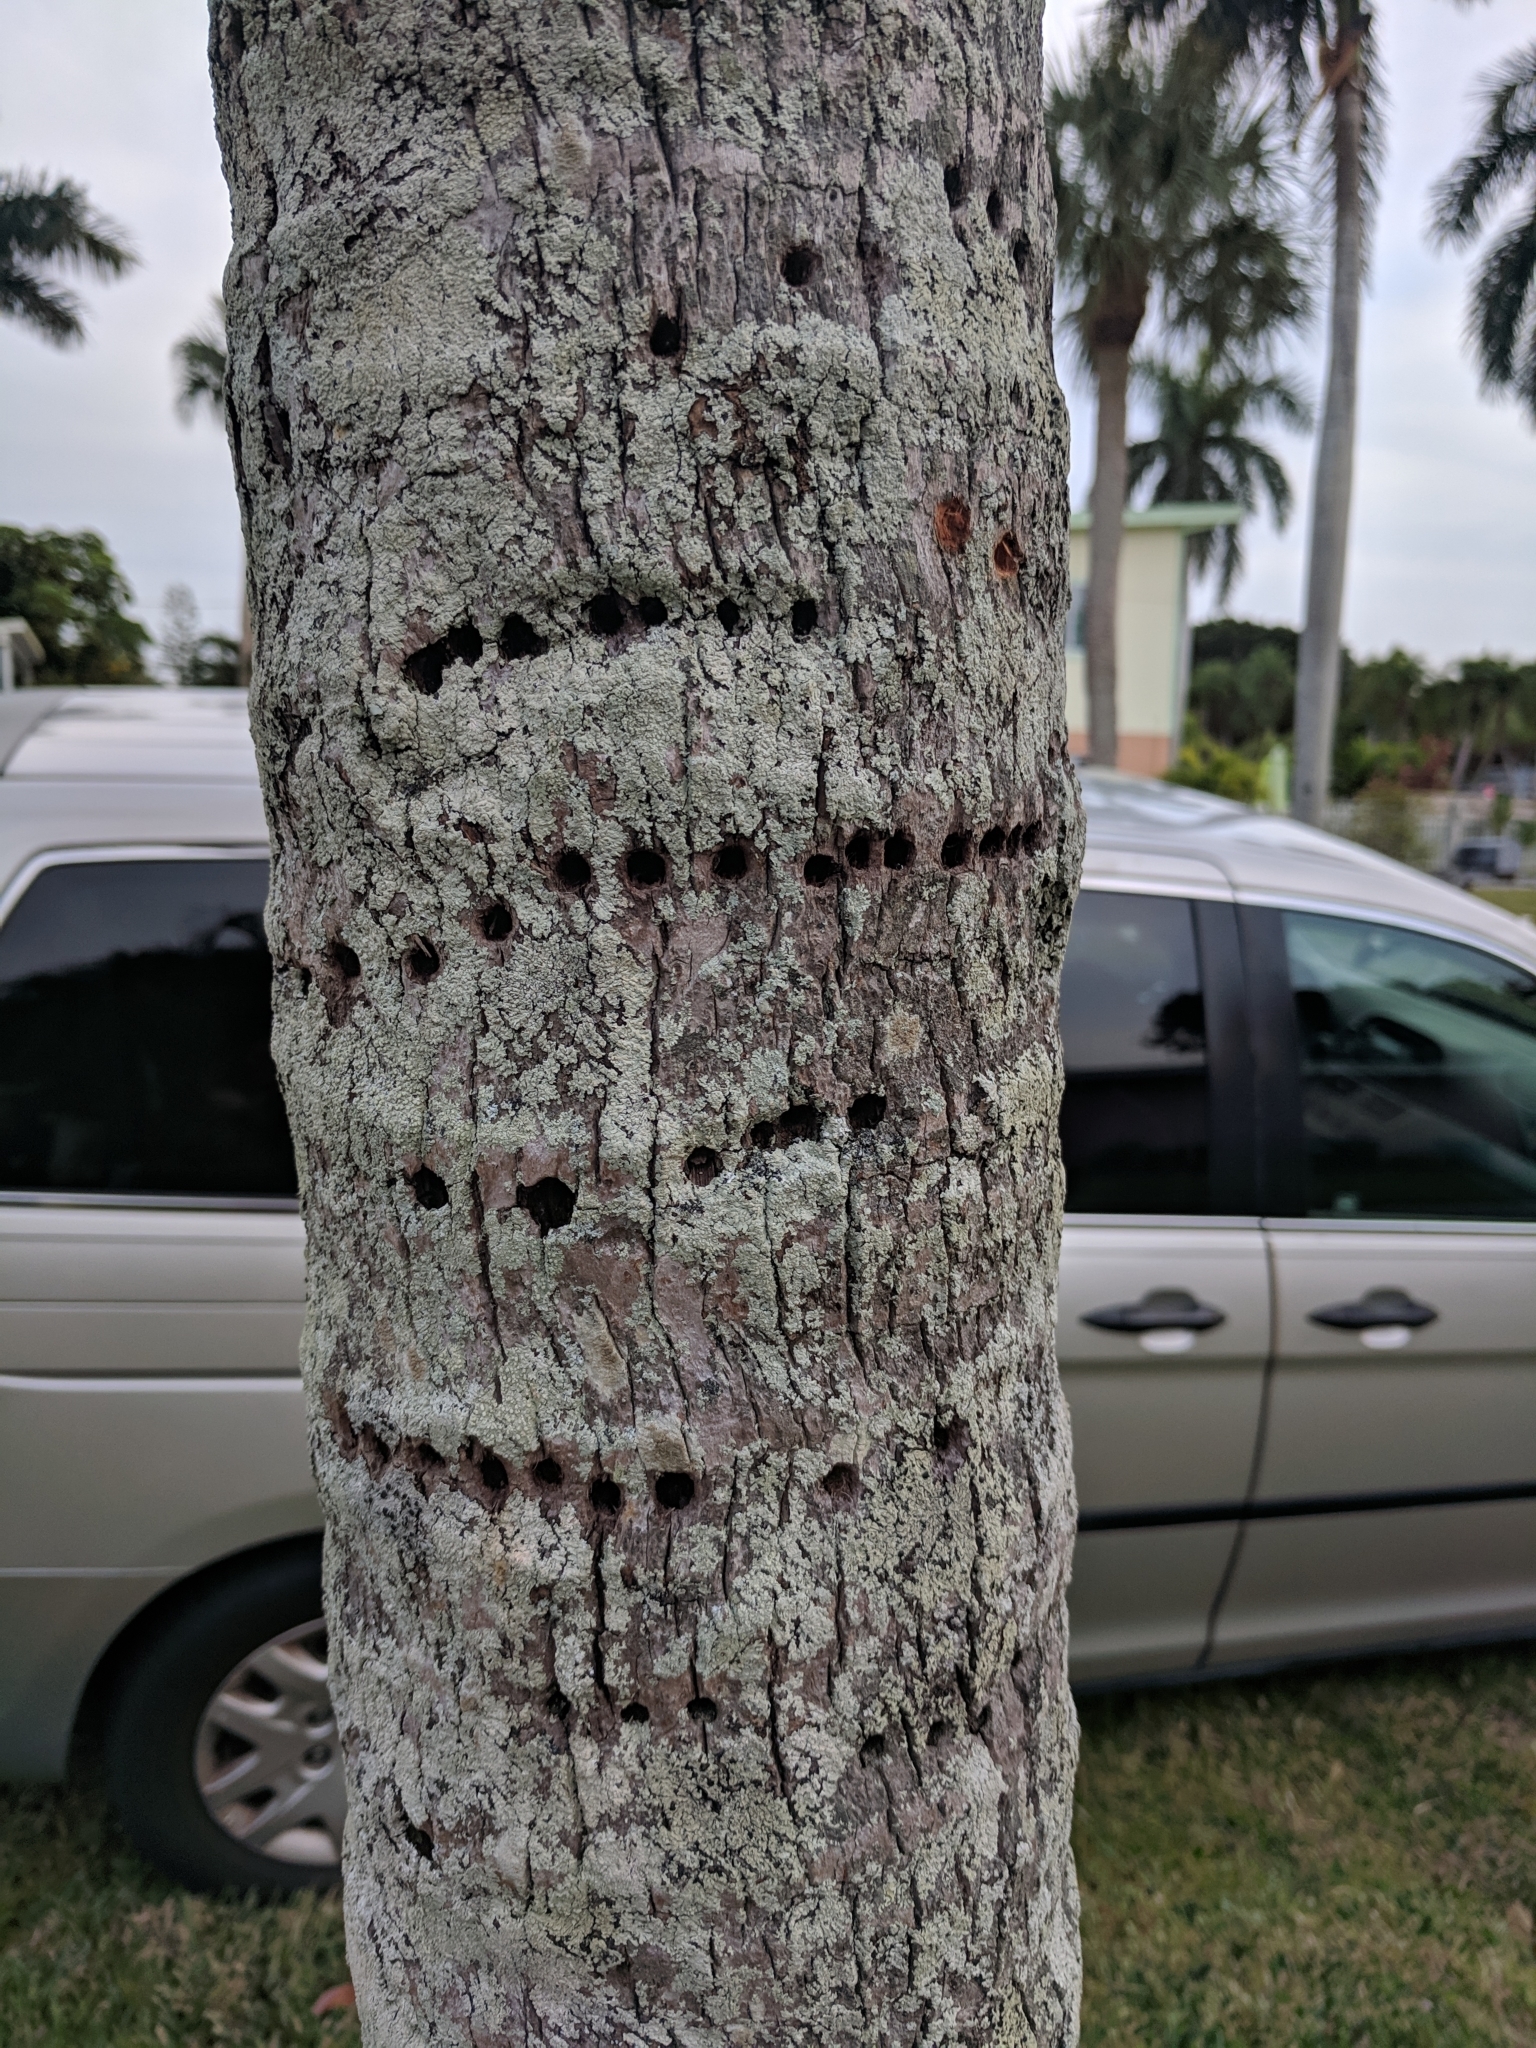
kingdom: Animalia
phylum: Chordata
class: Aves
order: Piciformes
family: Picidae
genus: Sphyrapicus
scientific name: Sphyrapicus varius
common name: Yellow-bellied sapsucker
